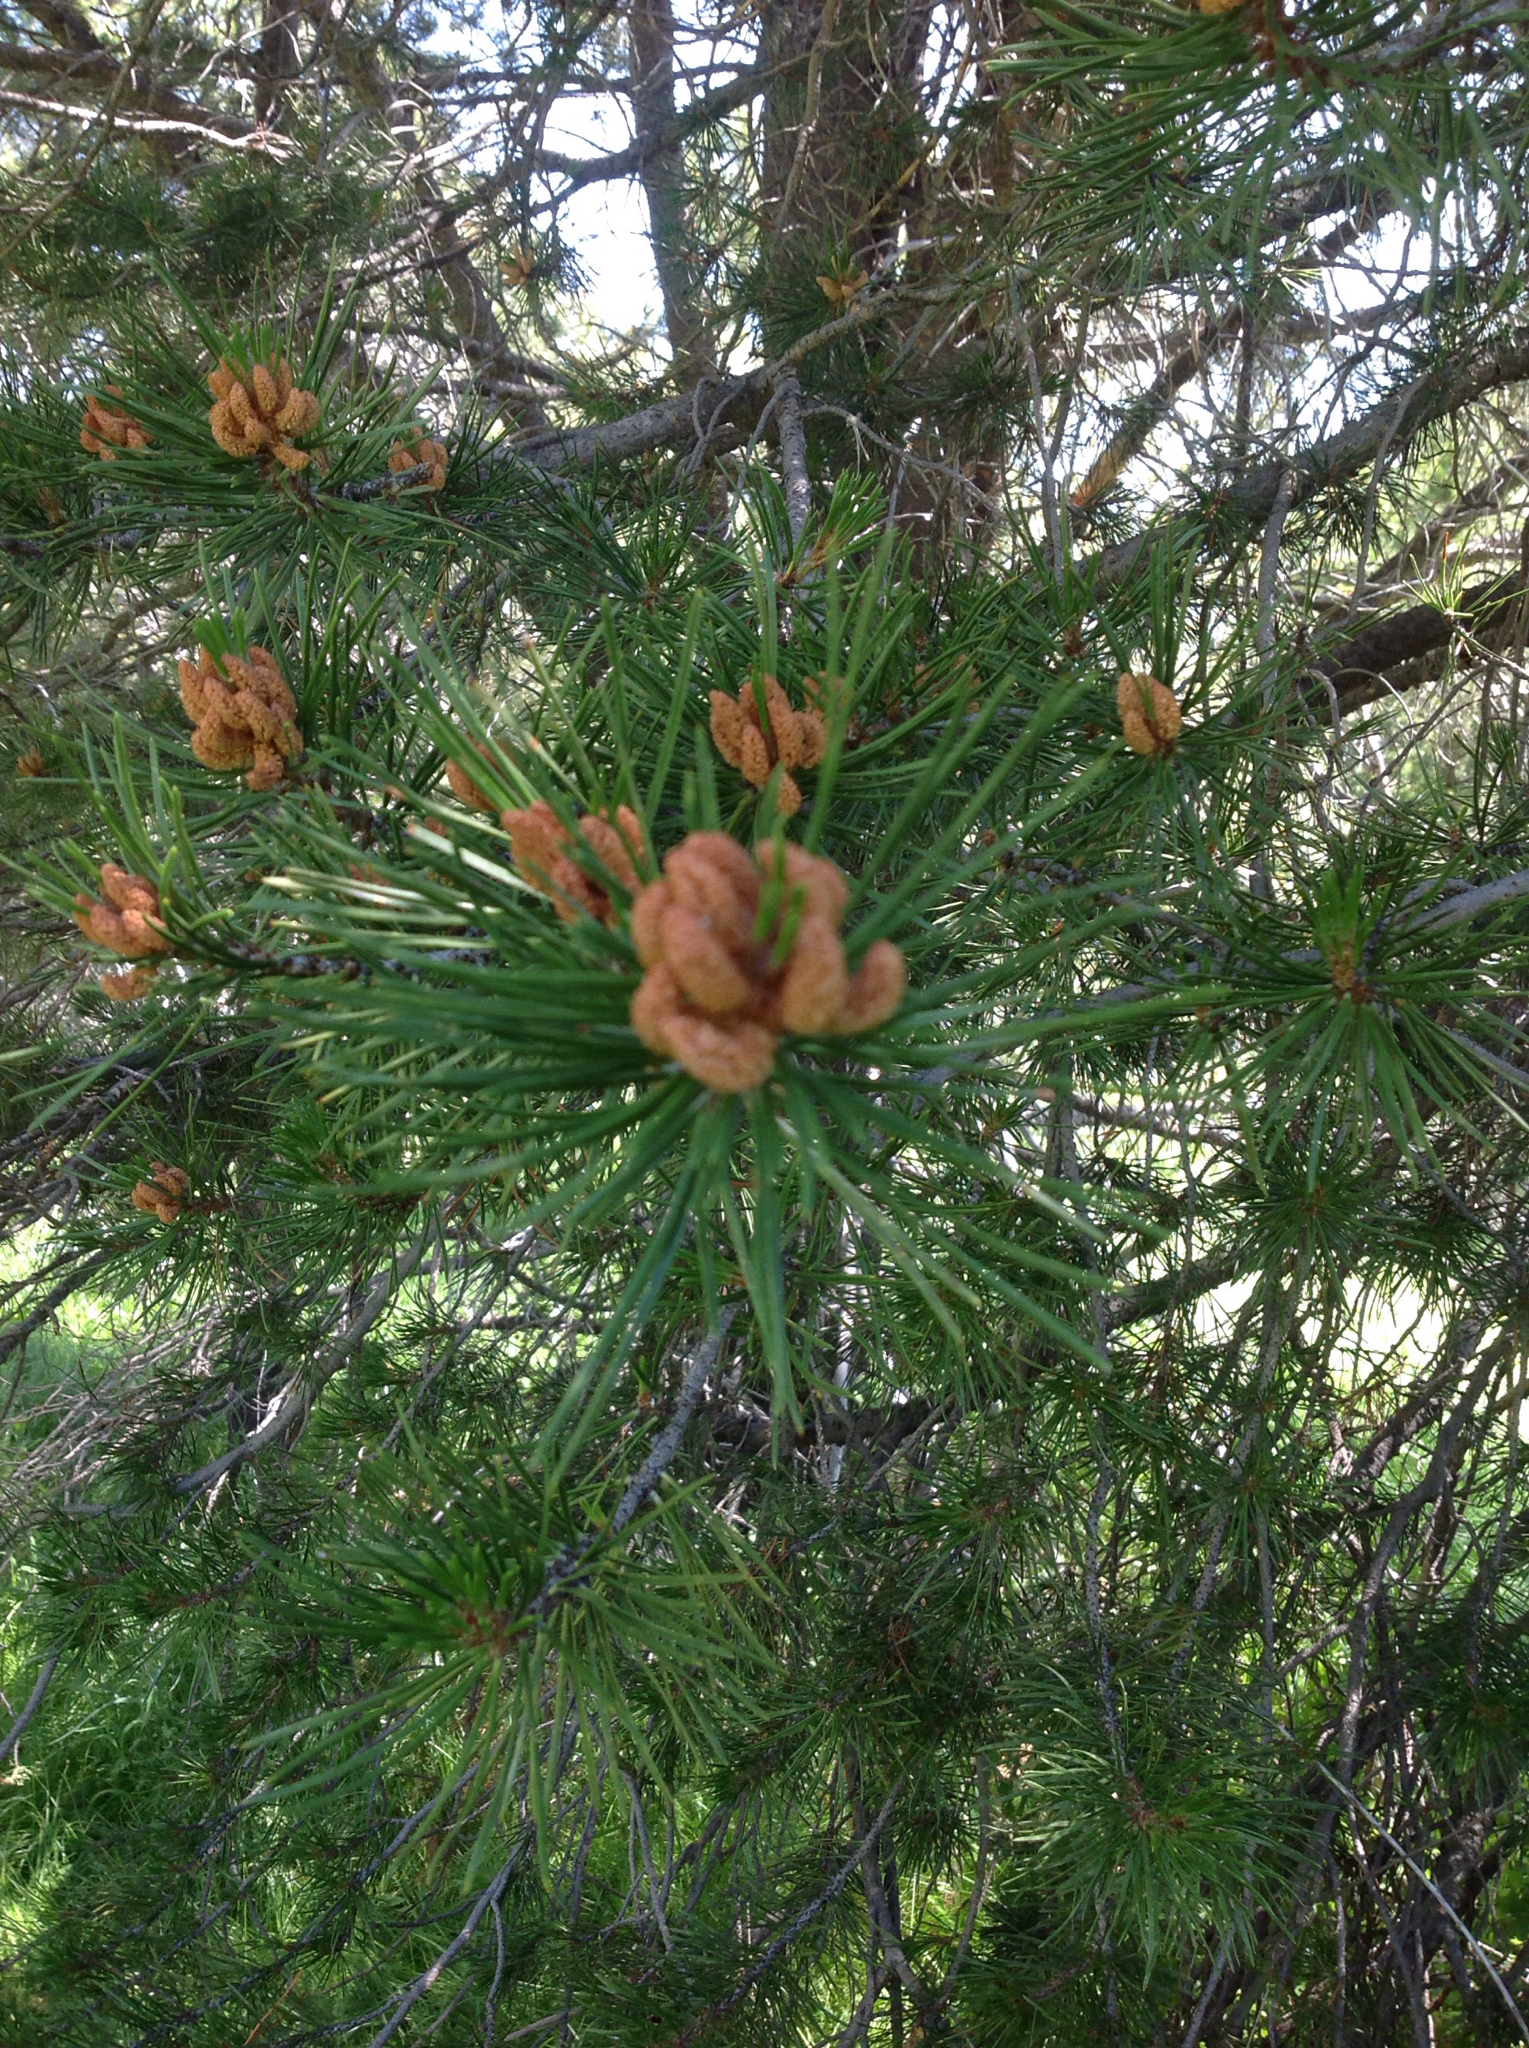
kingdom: Plantae
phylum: Tracheophyta
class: Pinopsida
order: Pinales
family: Pinaceae
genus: Pinus
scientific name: Pinus contorta
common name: Lodgepole pine
